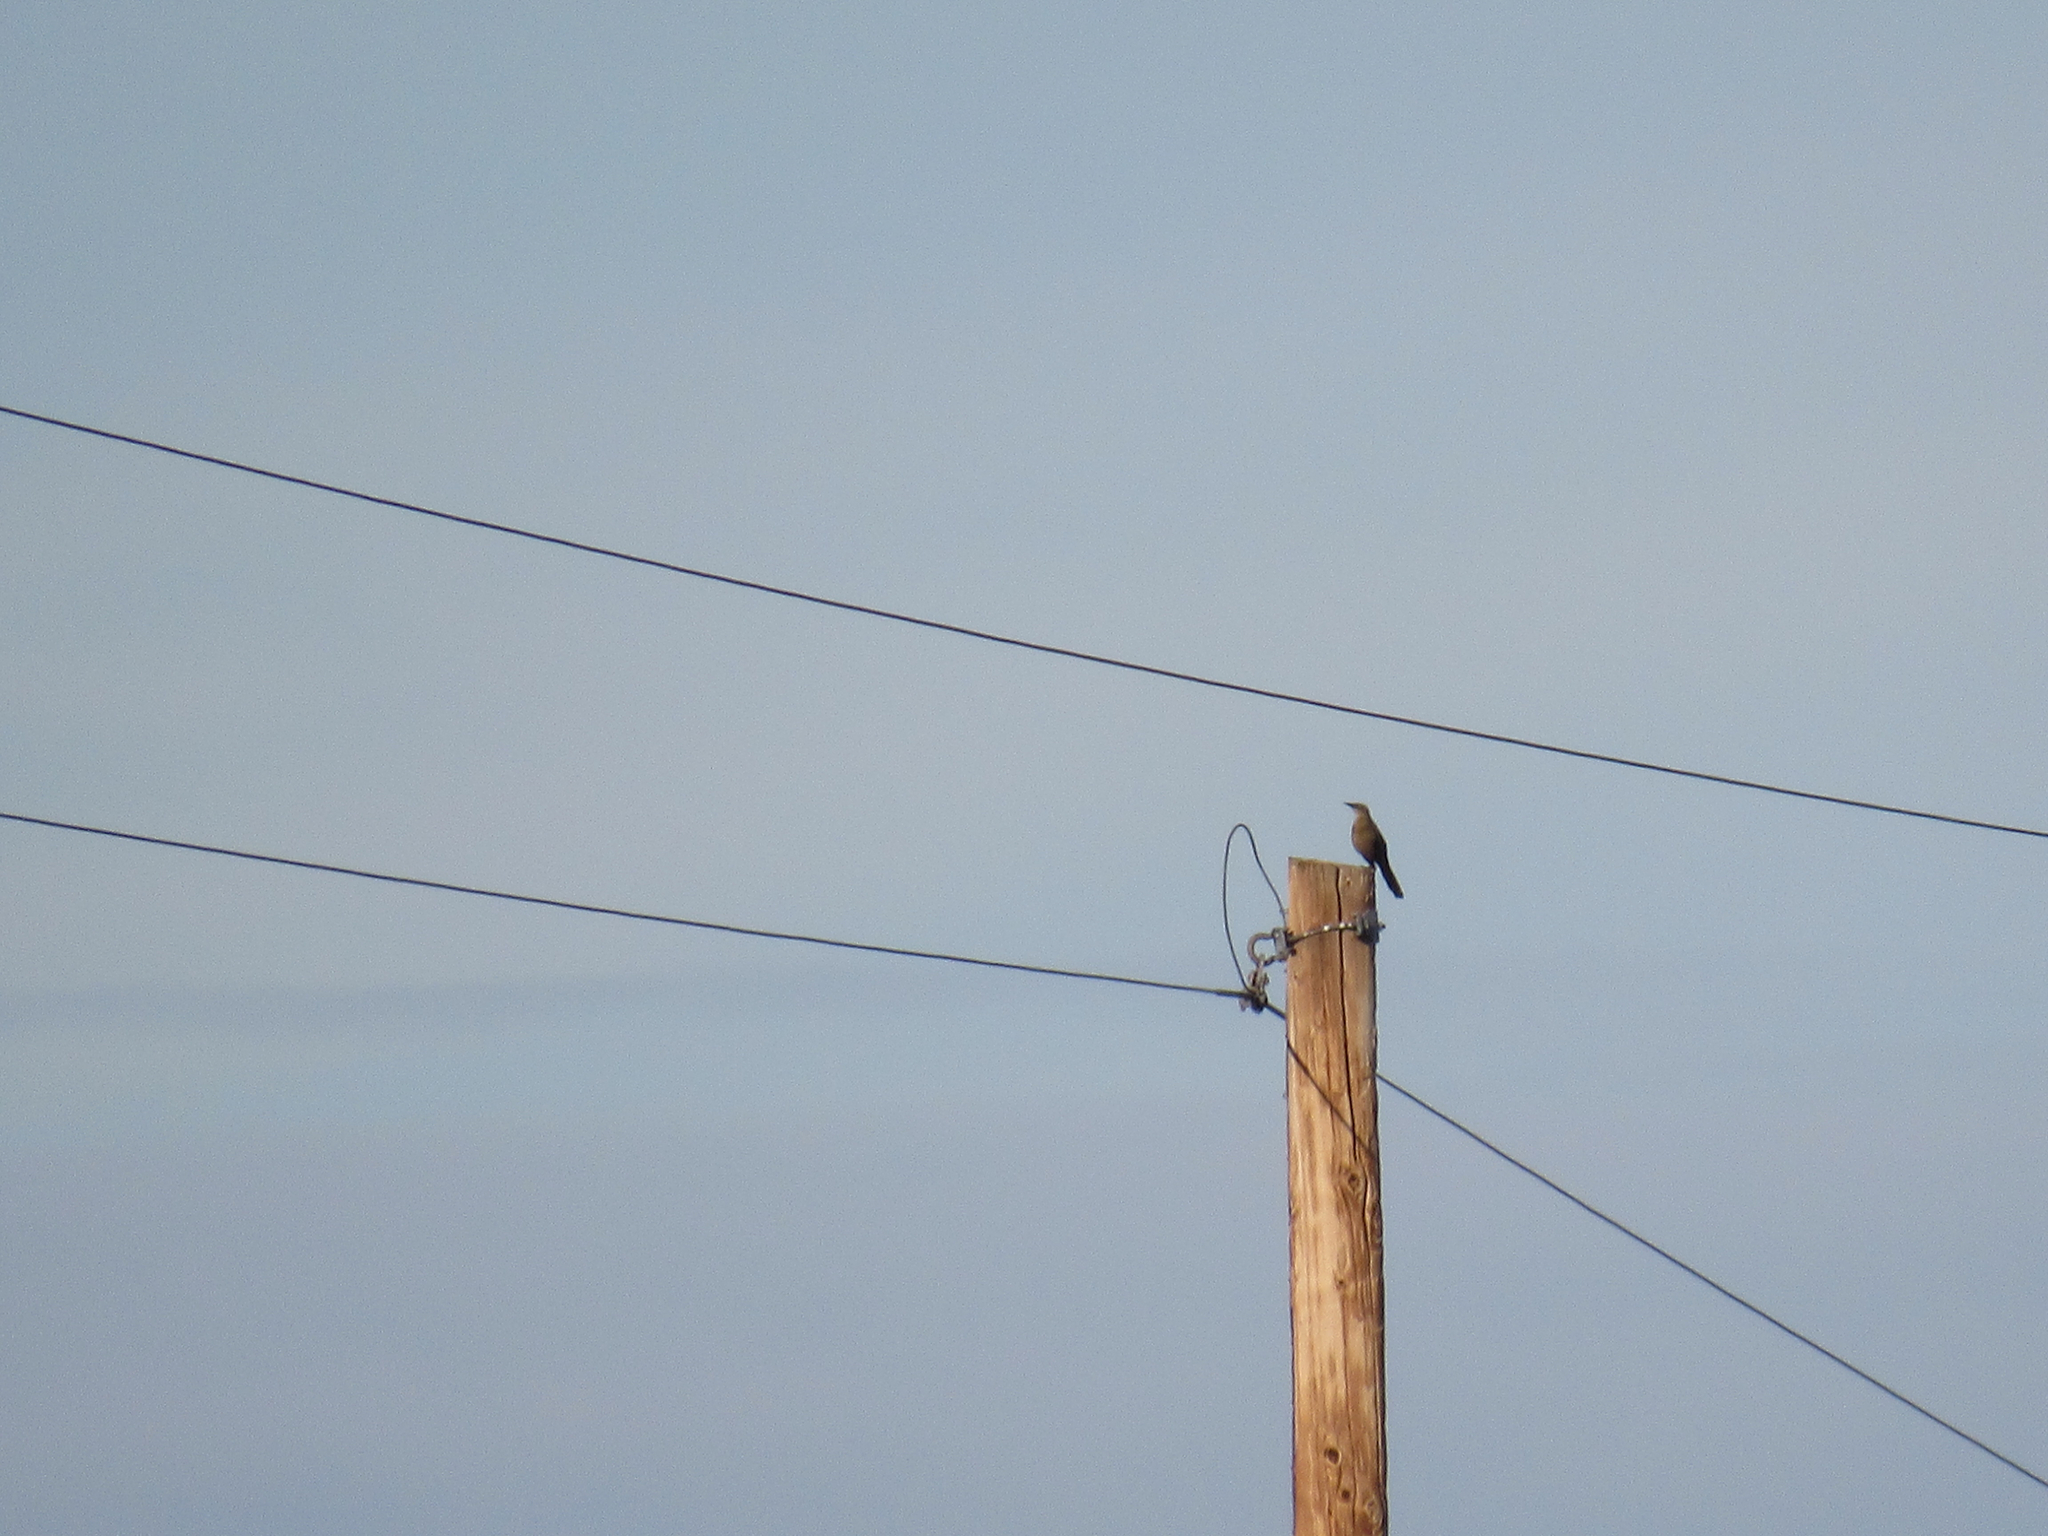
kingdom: Animalia
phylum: Chordata
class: Aves
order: Passeriformes
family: Icteridae
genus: Quiscalus
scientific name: Quiscalus mexicanus
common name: Great-tailed grackle
